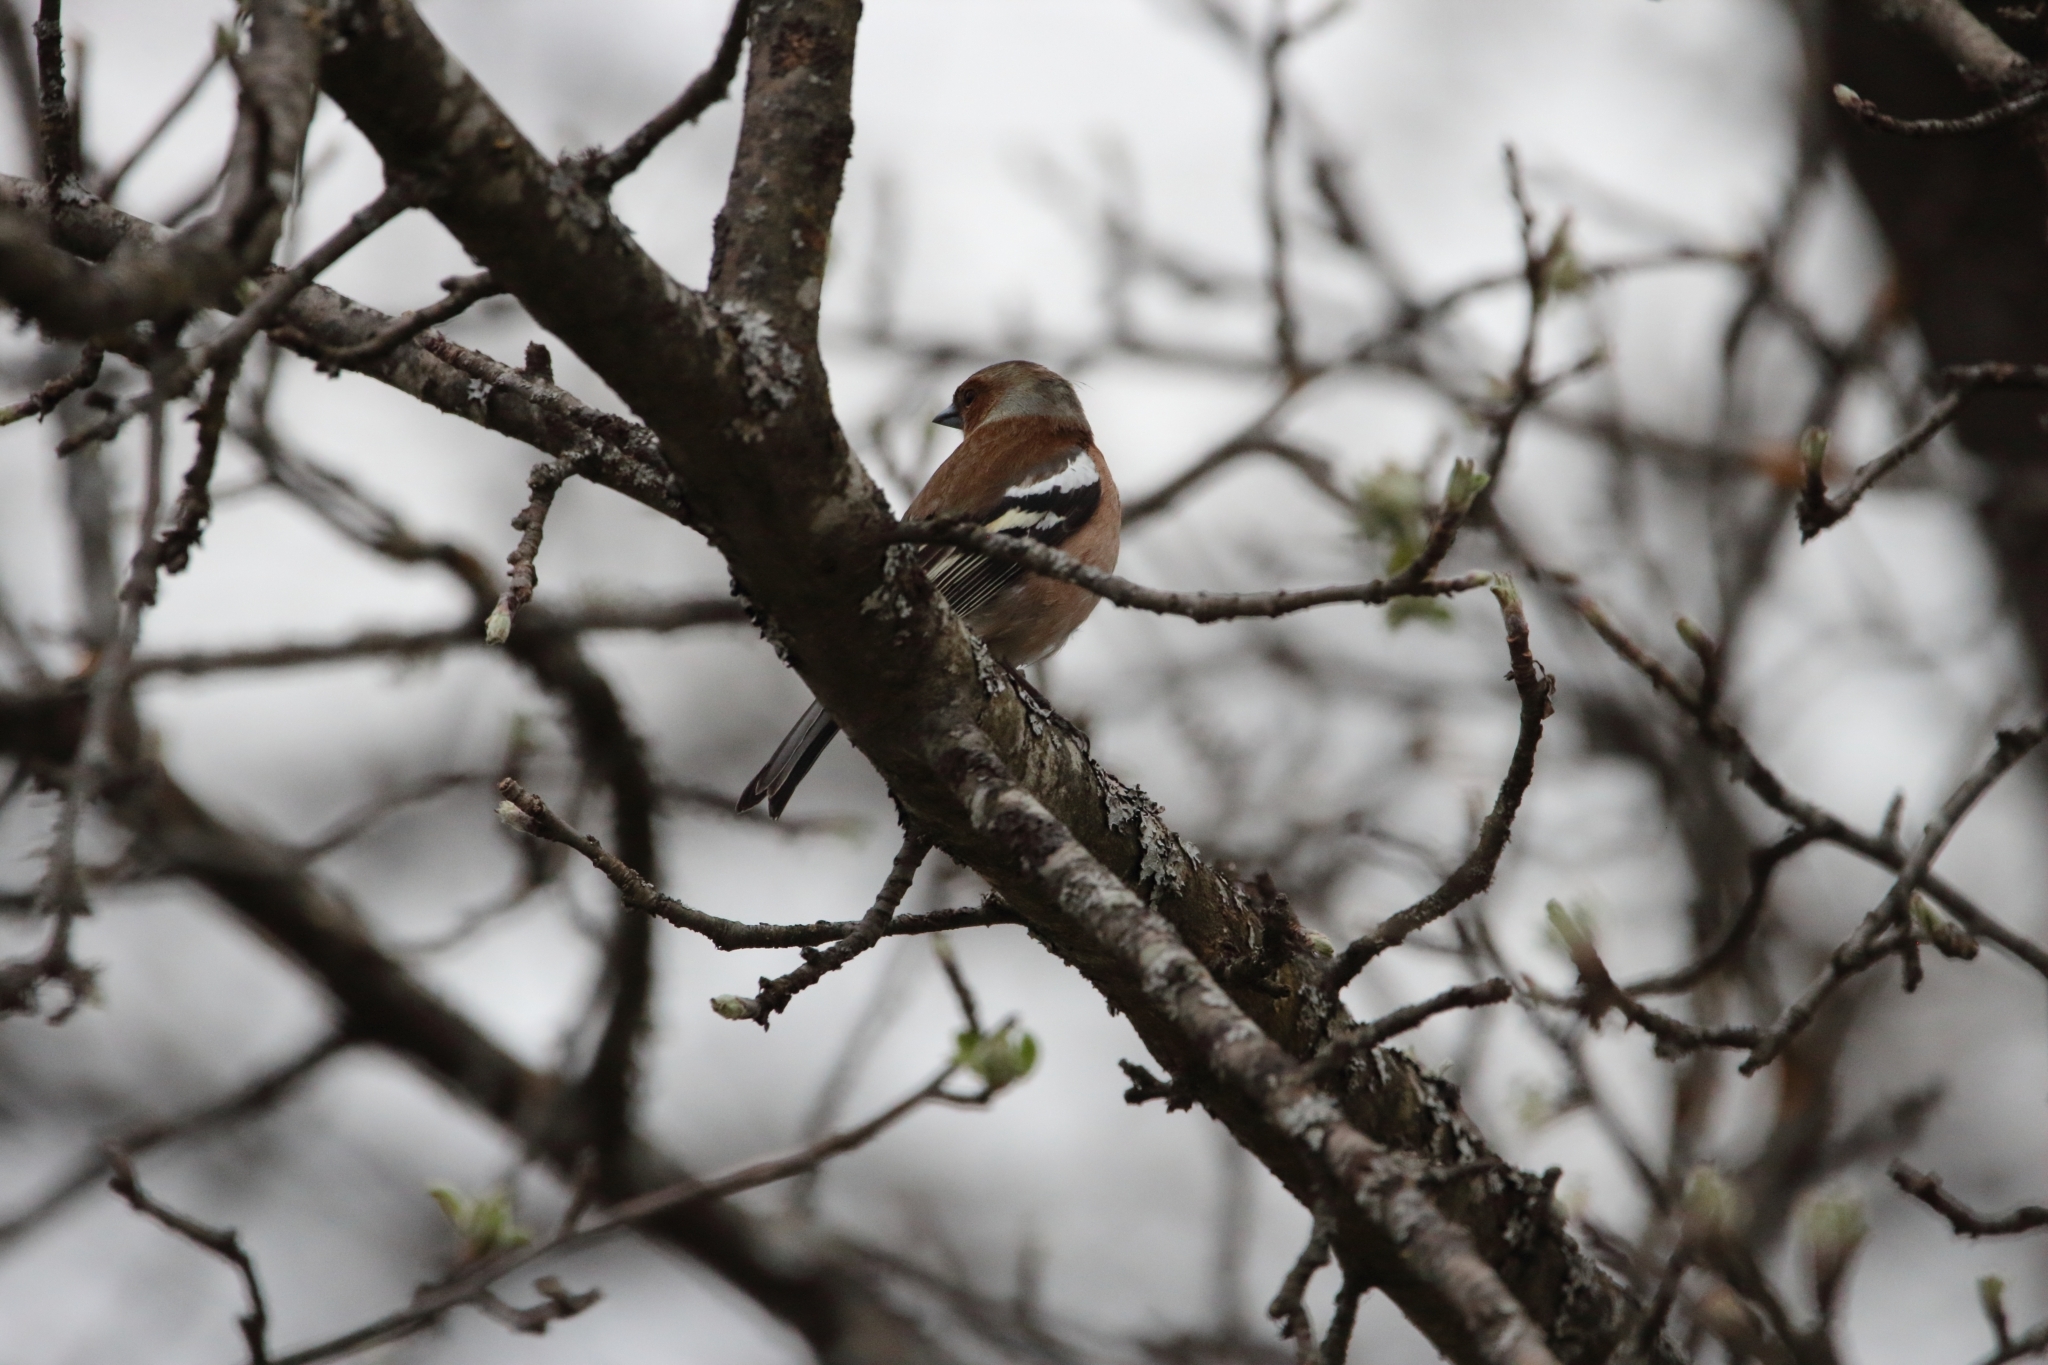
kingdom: Animalia
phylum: Chordata
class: Aves
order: Passeriformes
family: Fringillidae
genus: Fringilla
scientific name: Fringilla coelebs
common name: Common chaffinch
